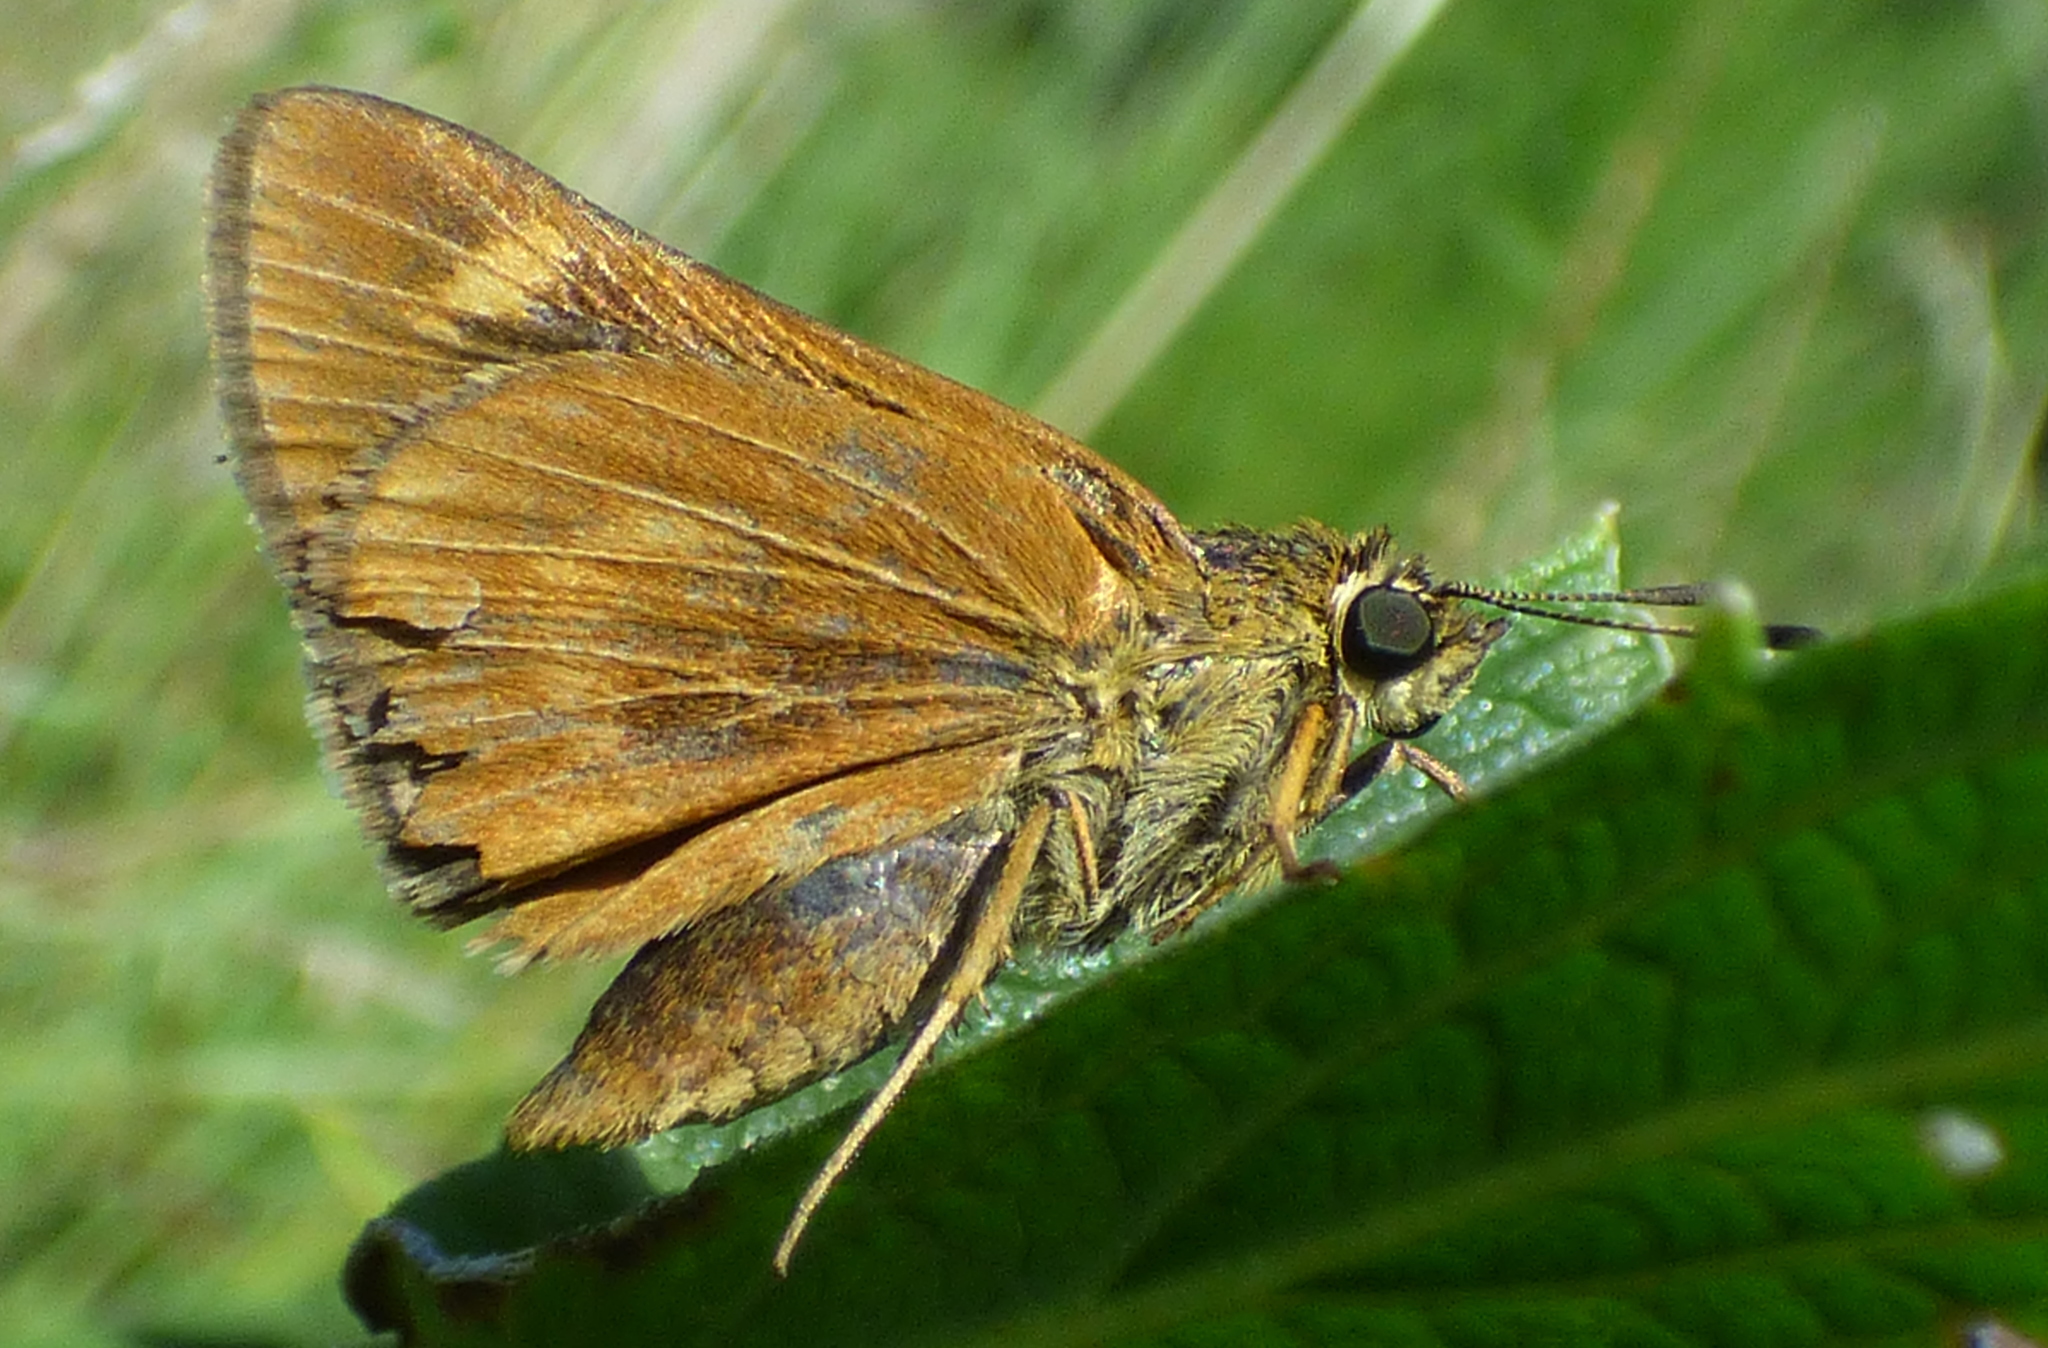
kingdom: Animalia
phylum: Arthropoda
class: Insecta
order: Lepidoptera
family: Hesperiidae
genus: Problema
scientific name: Problema byssus
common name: Byssus skipper
